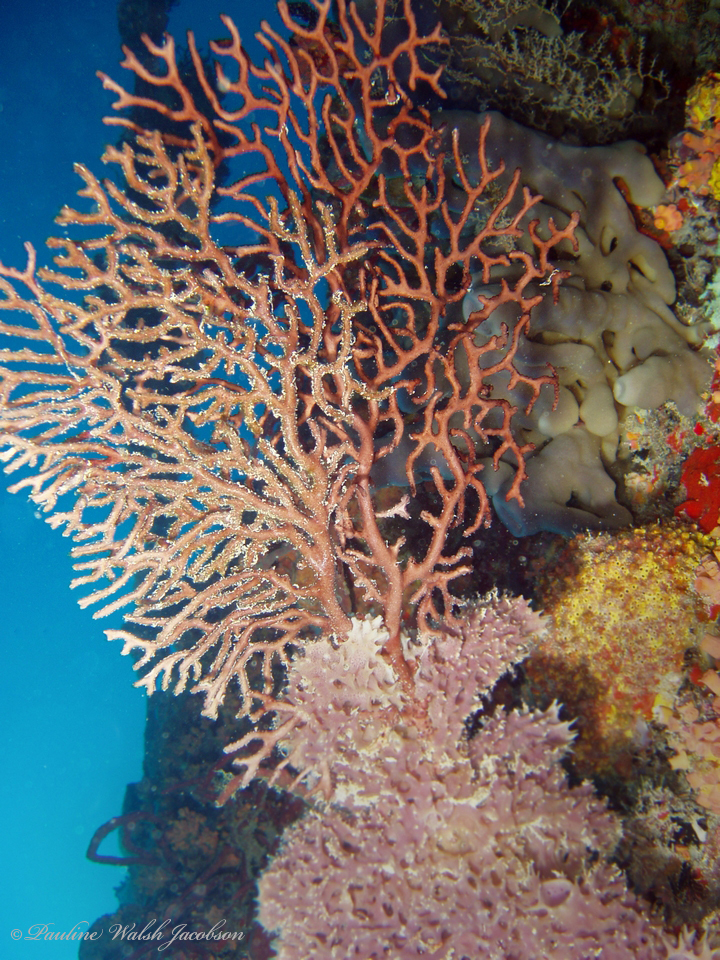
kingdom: Animalia
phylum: Cnidaria
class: Anthozoa
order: Malacalcyonacea
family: Melithaeidae
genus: Iciligorgia
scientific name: Iciligorgia schrammi
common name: Black sea fan
